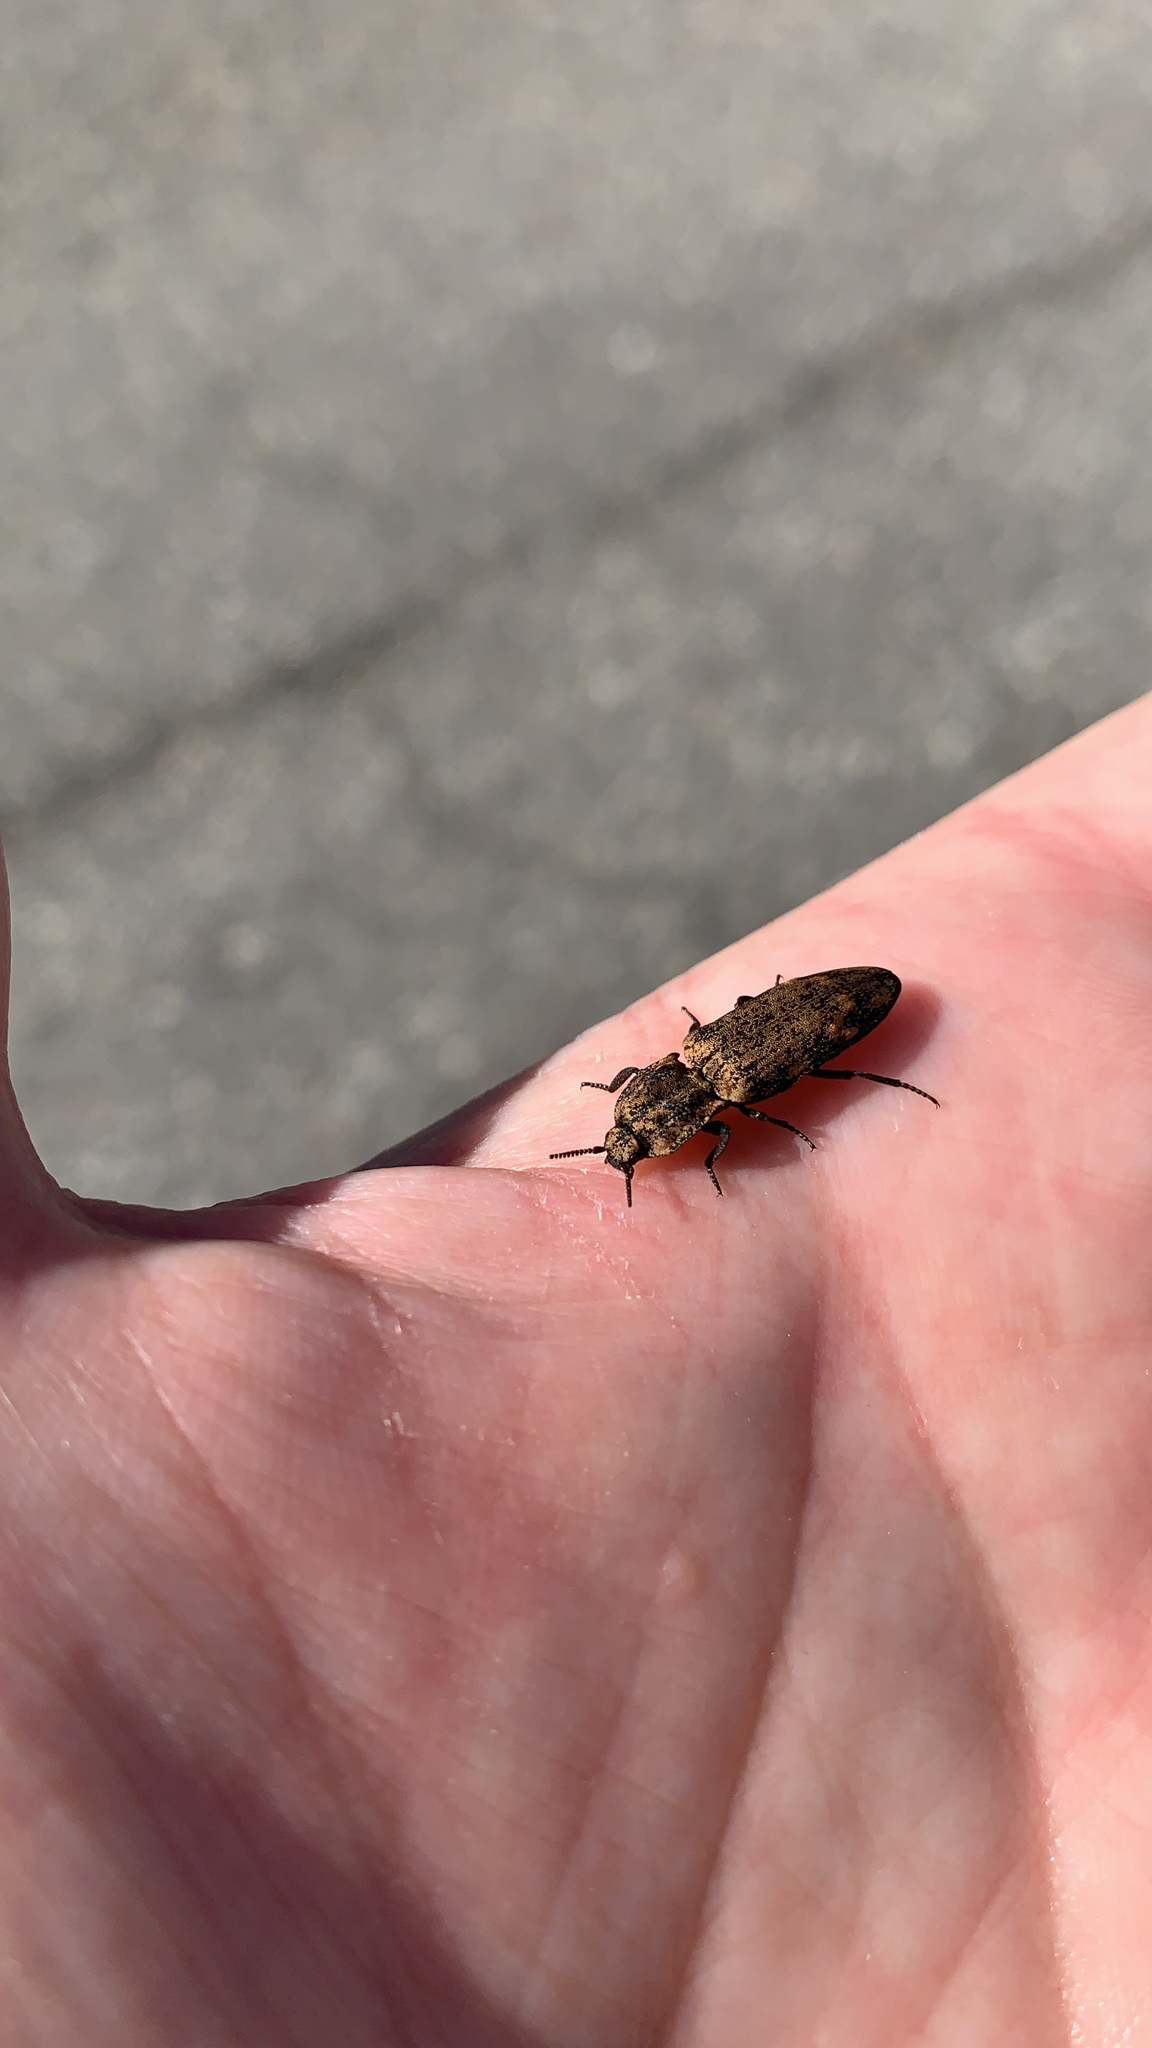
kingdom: Animalia
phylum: Arthropoda
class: Insecta
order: Coleoptera
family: Elateridae
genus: Danosoma
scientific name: Danosoma brevicorne
